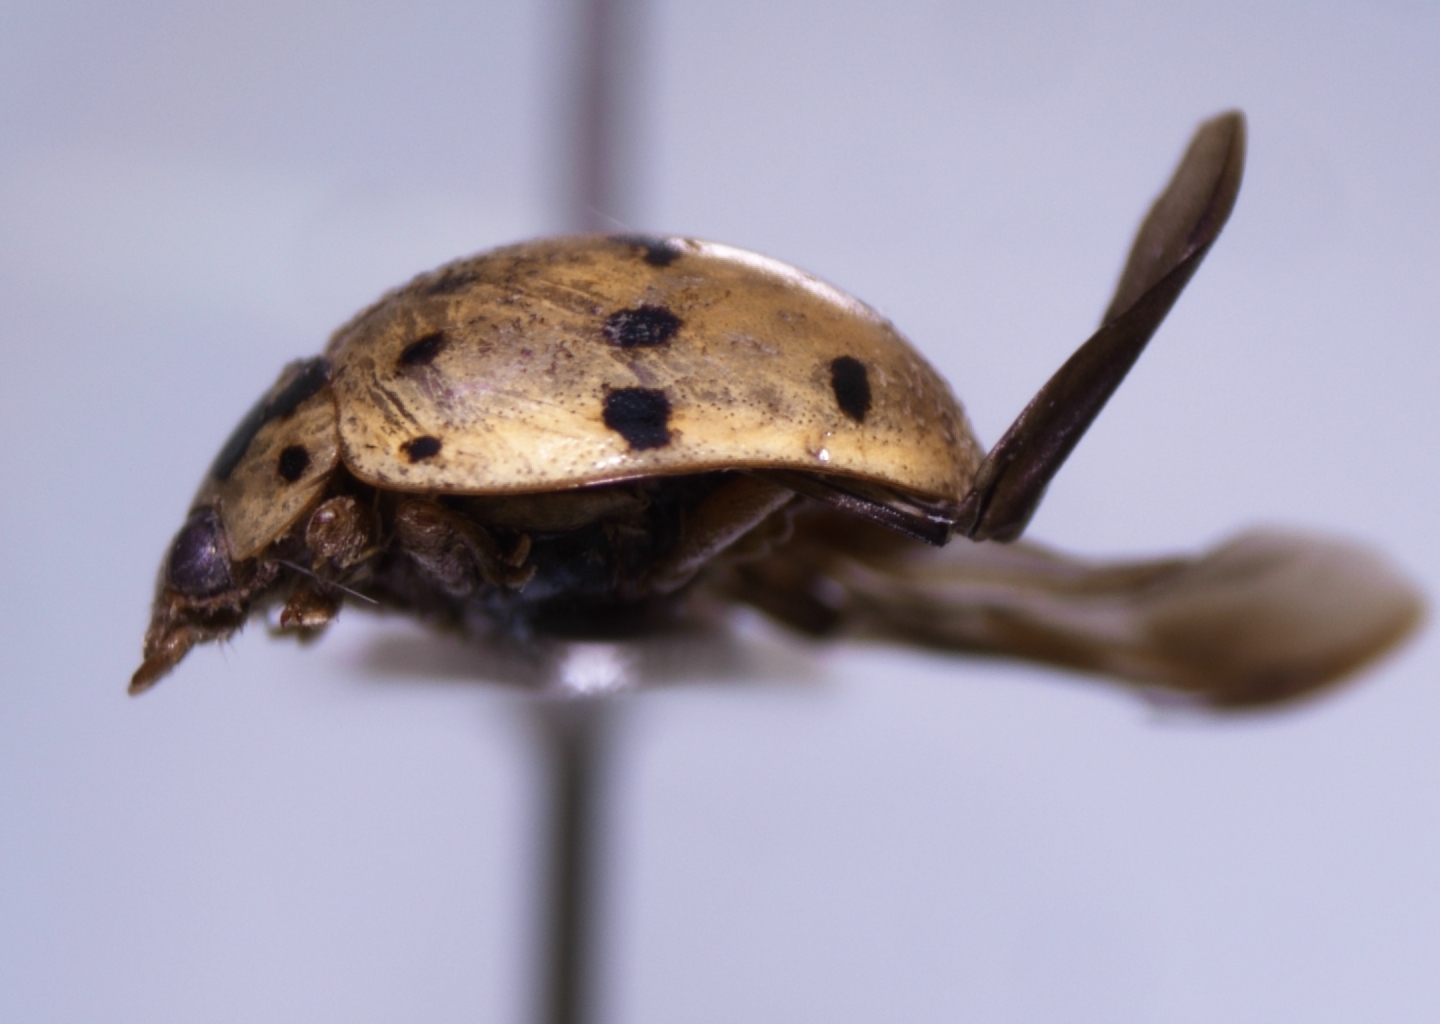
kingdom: Animalia
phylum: Arthropoda
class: Insecta
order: Coleoptera
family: Coccinellidae
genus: Olla
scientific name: Olla v-nigrum
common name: Ashy gray lady beetle
